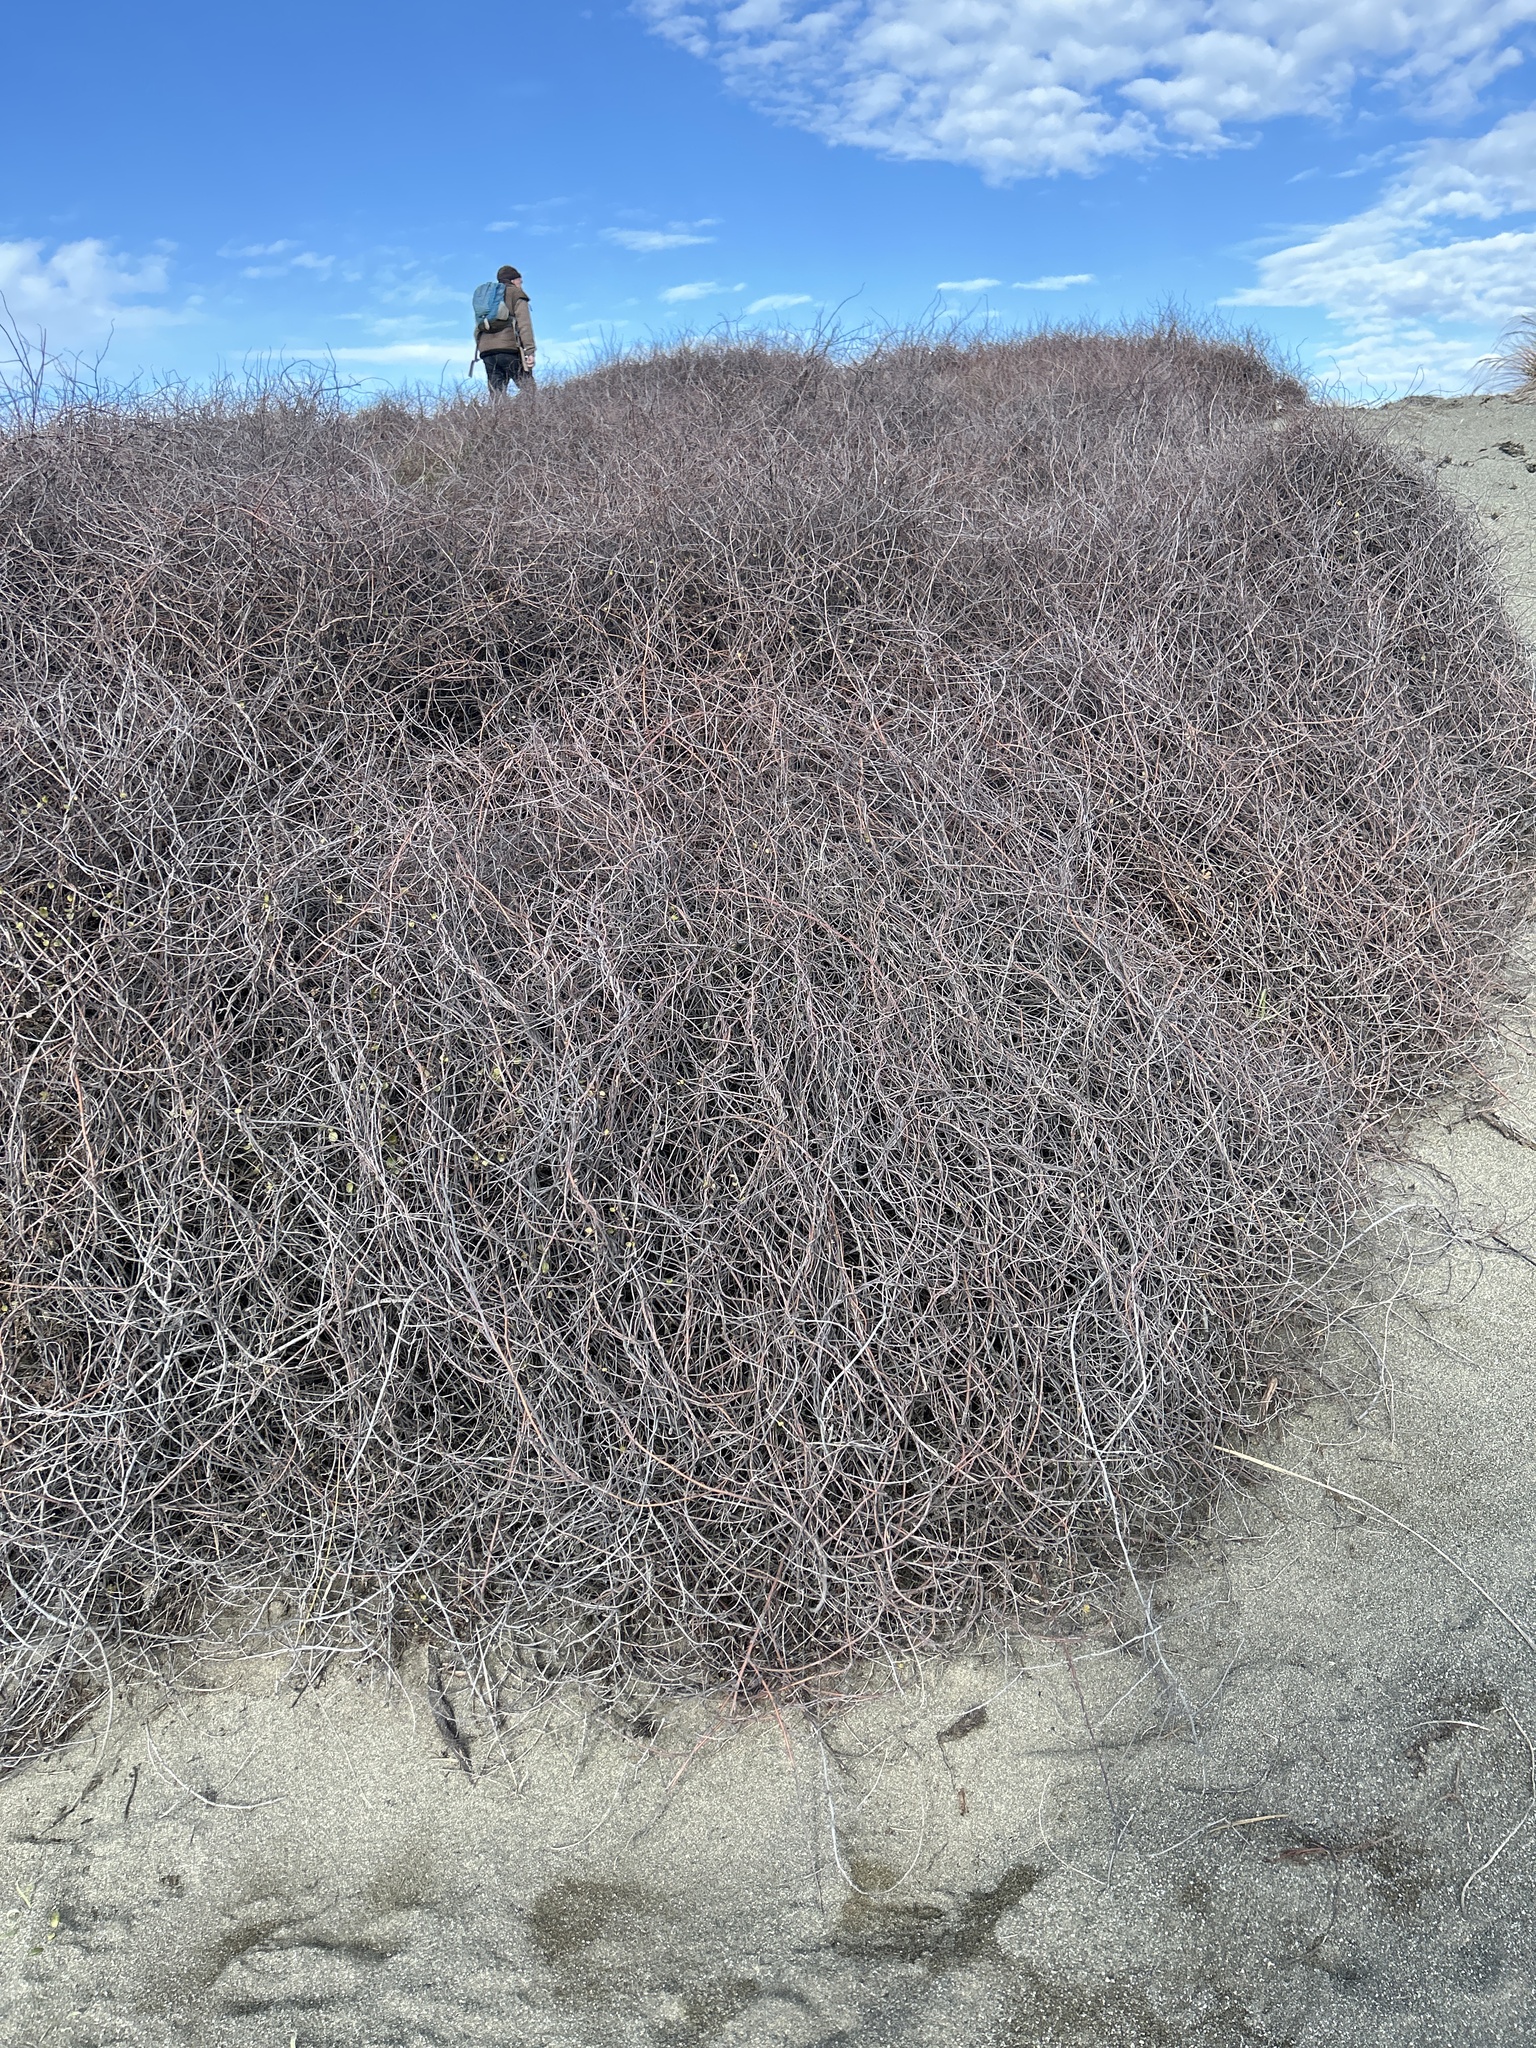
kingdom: Plantae
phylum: Tracheophyta
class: Magnoliopsida
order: Caryophyllales
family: Polygonaceae
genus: Muehlenbeckia
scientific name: Muehlenbeckia complexa
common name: Wireplant
